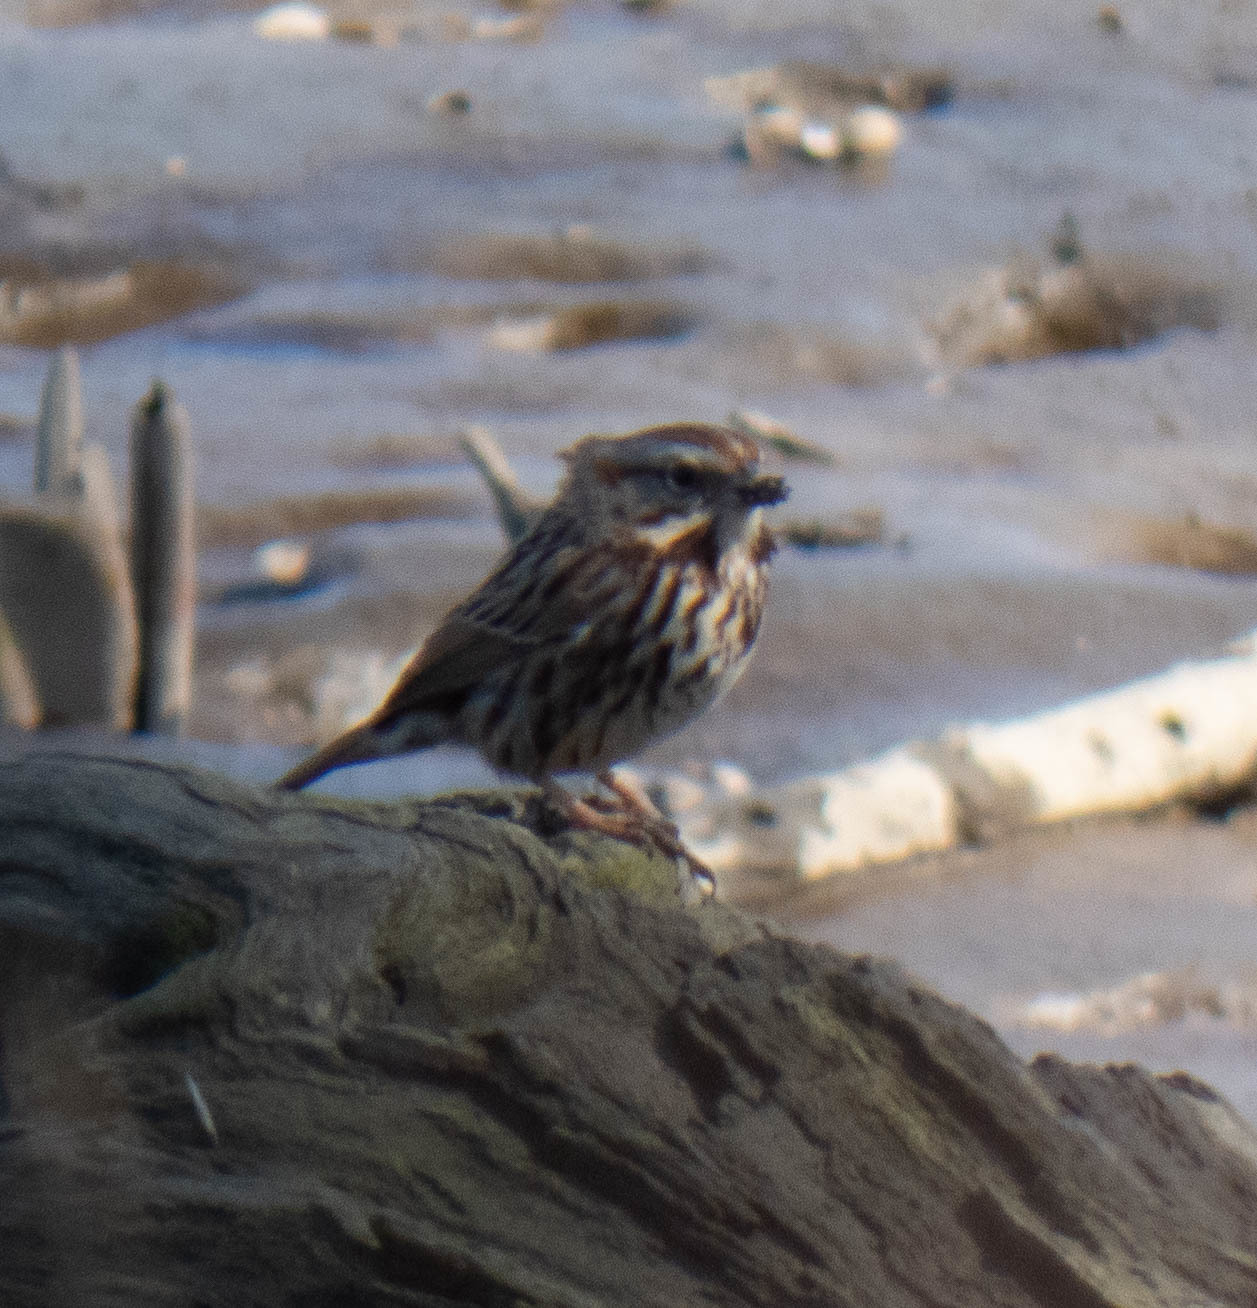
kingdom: Animalia
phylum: Chordata
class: Aves
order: Passeriformes
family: Passerellidae
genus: Melospiza
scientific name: Melospiza melodia
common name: Song sparrow
